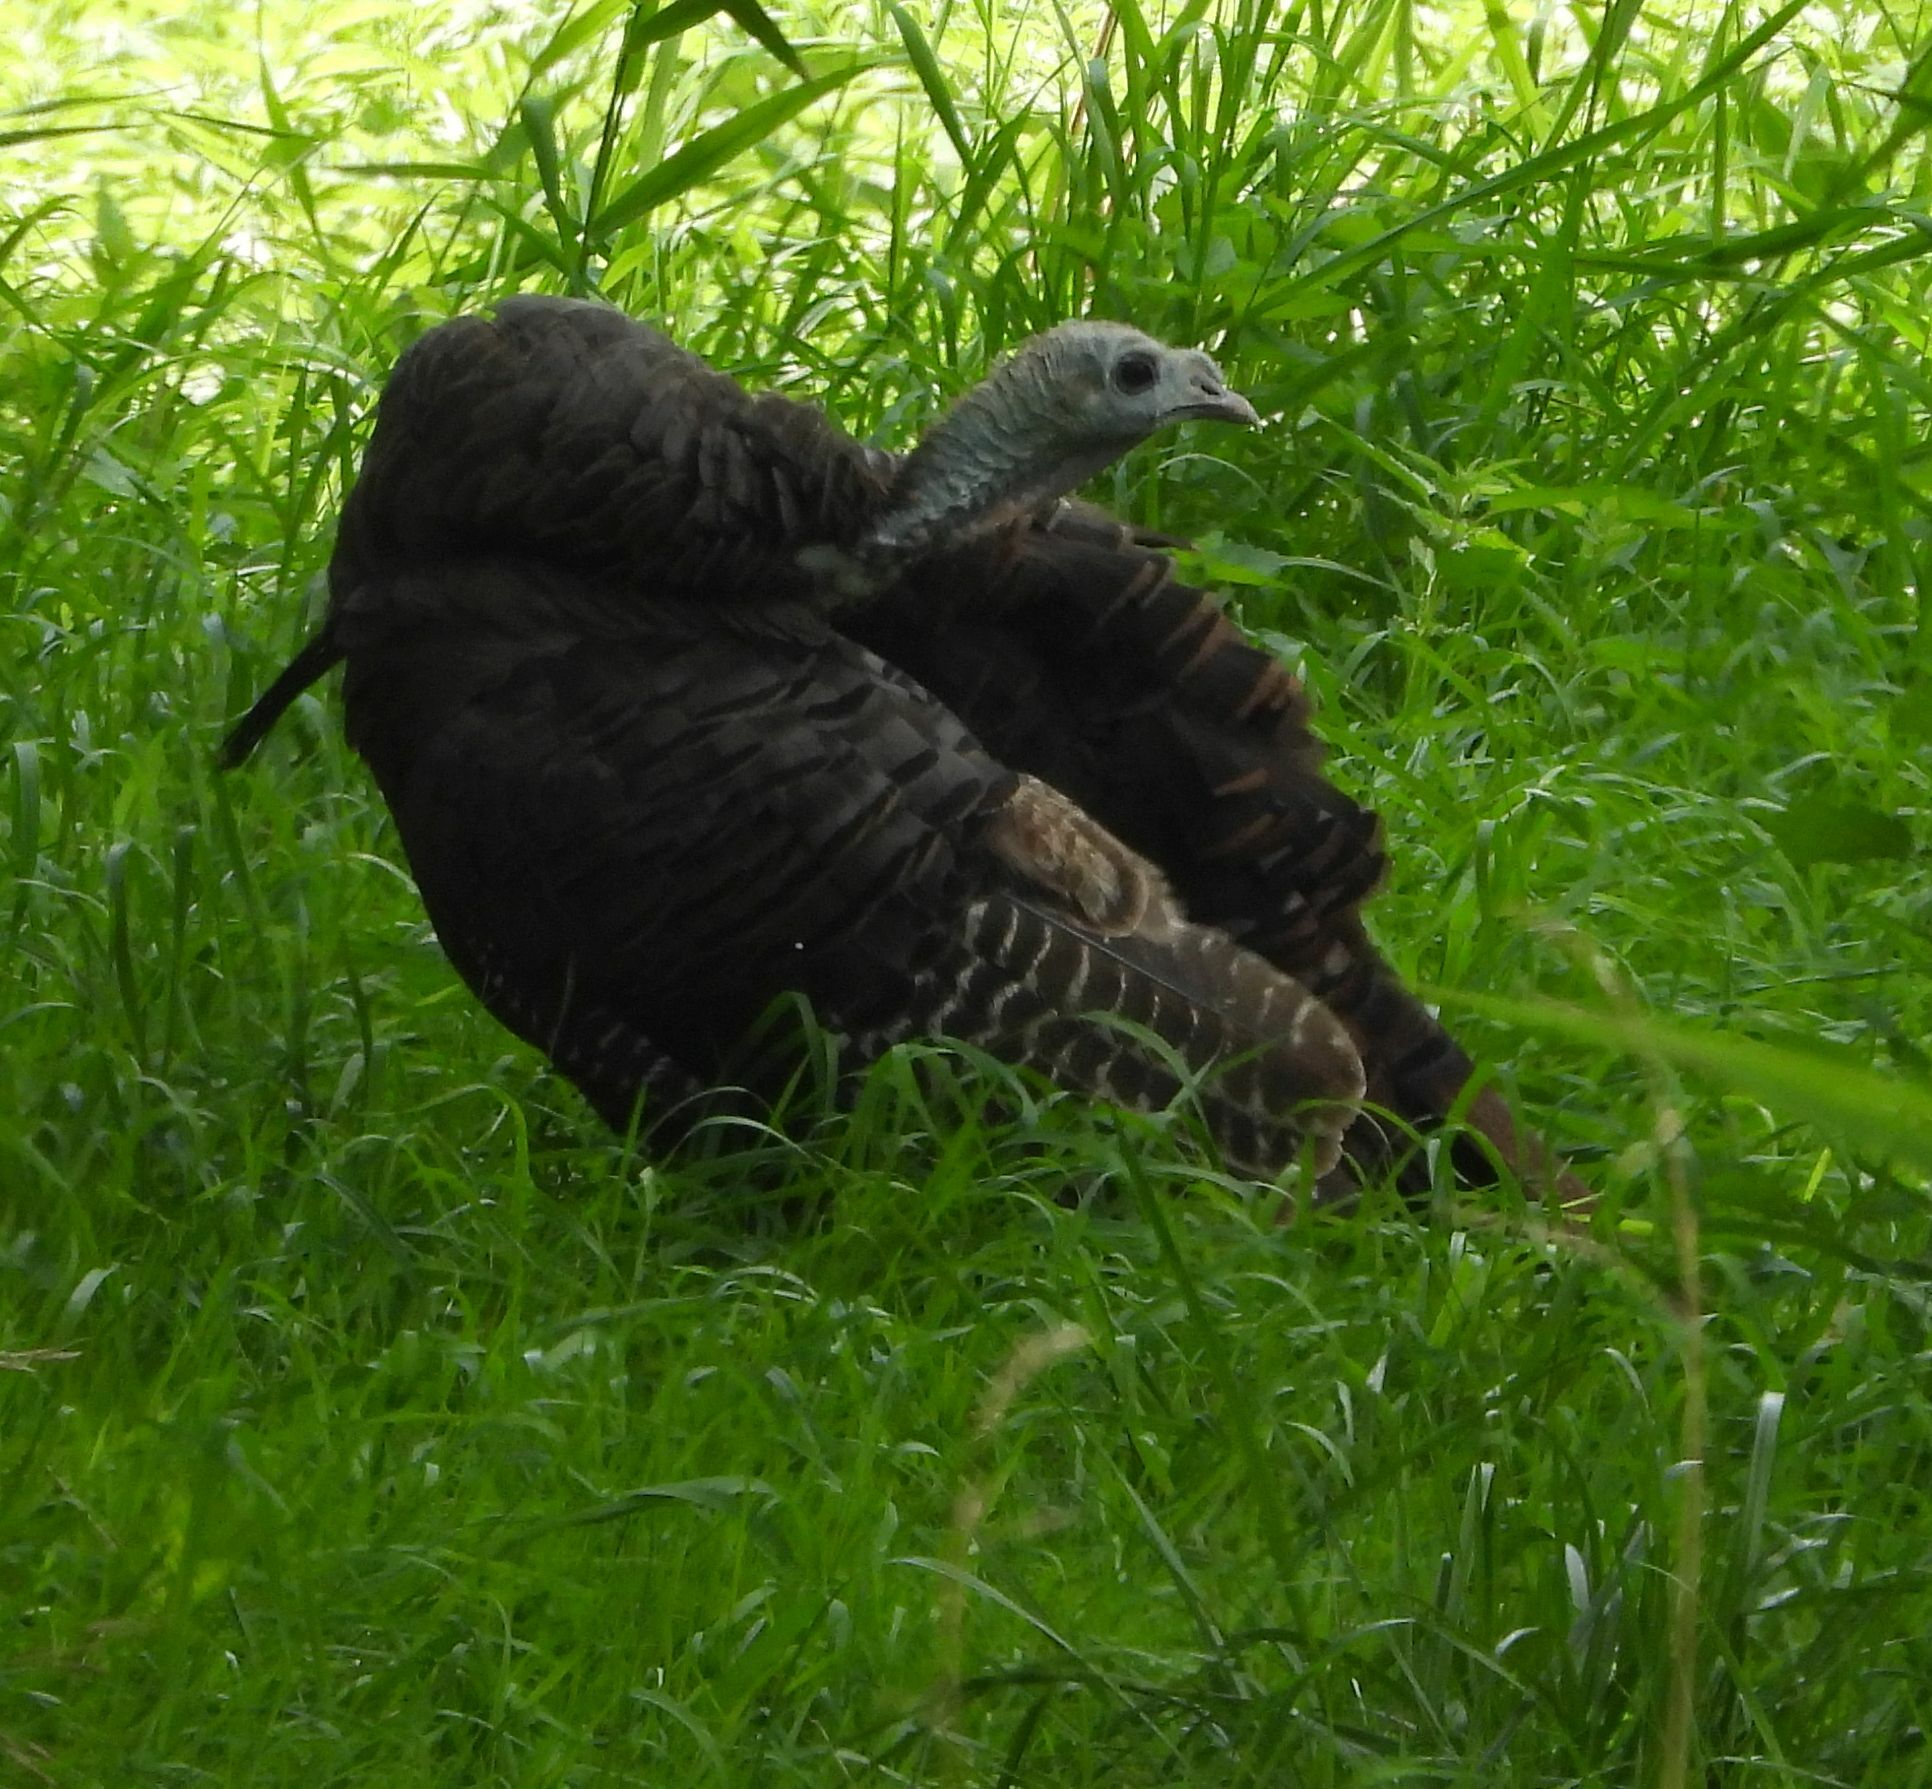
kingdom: Animalia
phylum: Chordata
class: Aves
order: Galliformes
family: Phasianidae
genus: Meleagris
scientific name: Meleagris gallopavo
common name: Wild turkey
